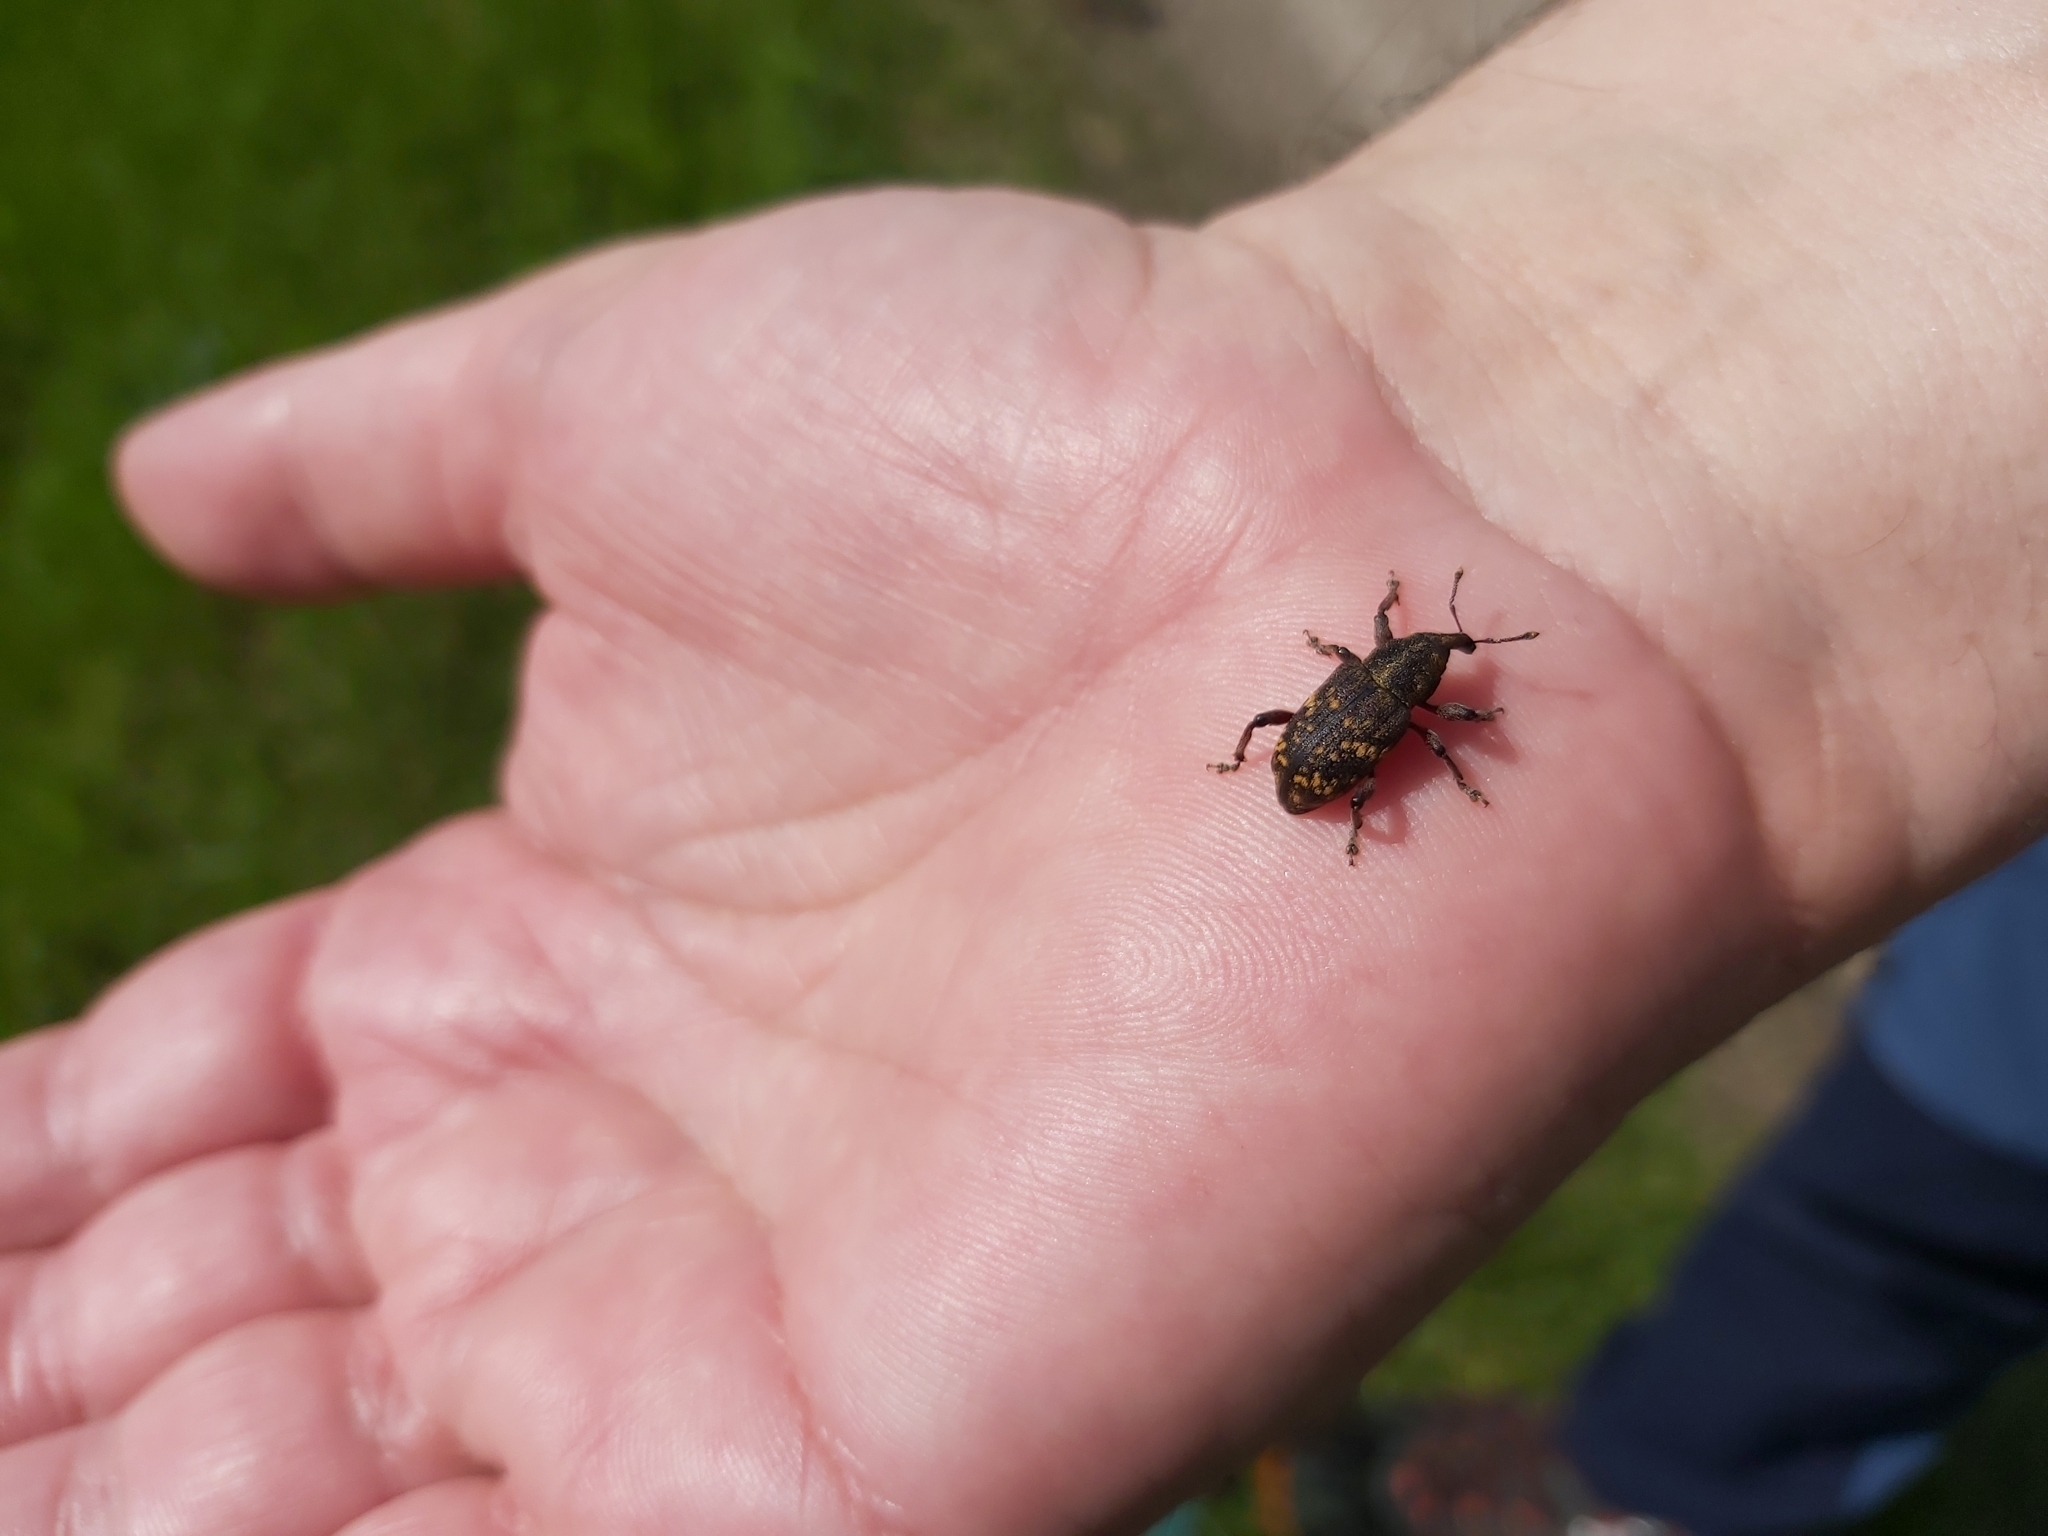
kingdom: Animalia
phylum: Arthropoda
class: Insecta
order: Coleoptera
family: Curculionidae
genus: Hylobius
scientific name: Hylobius abietis
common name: Large pine weevil
